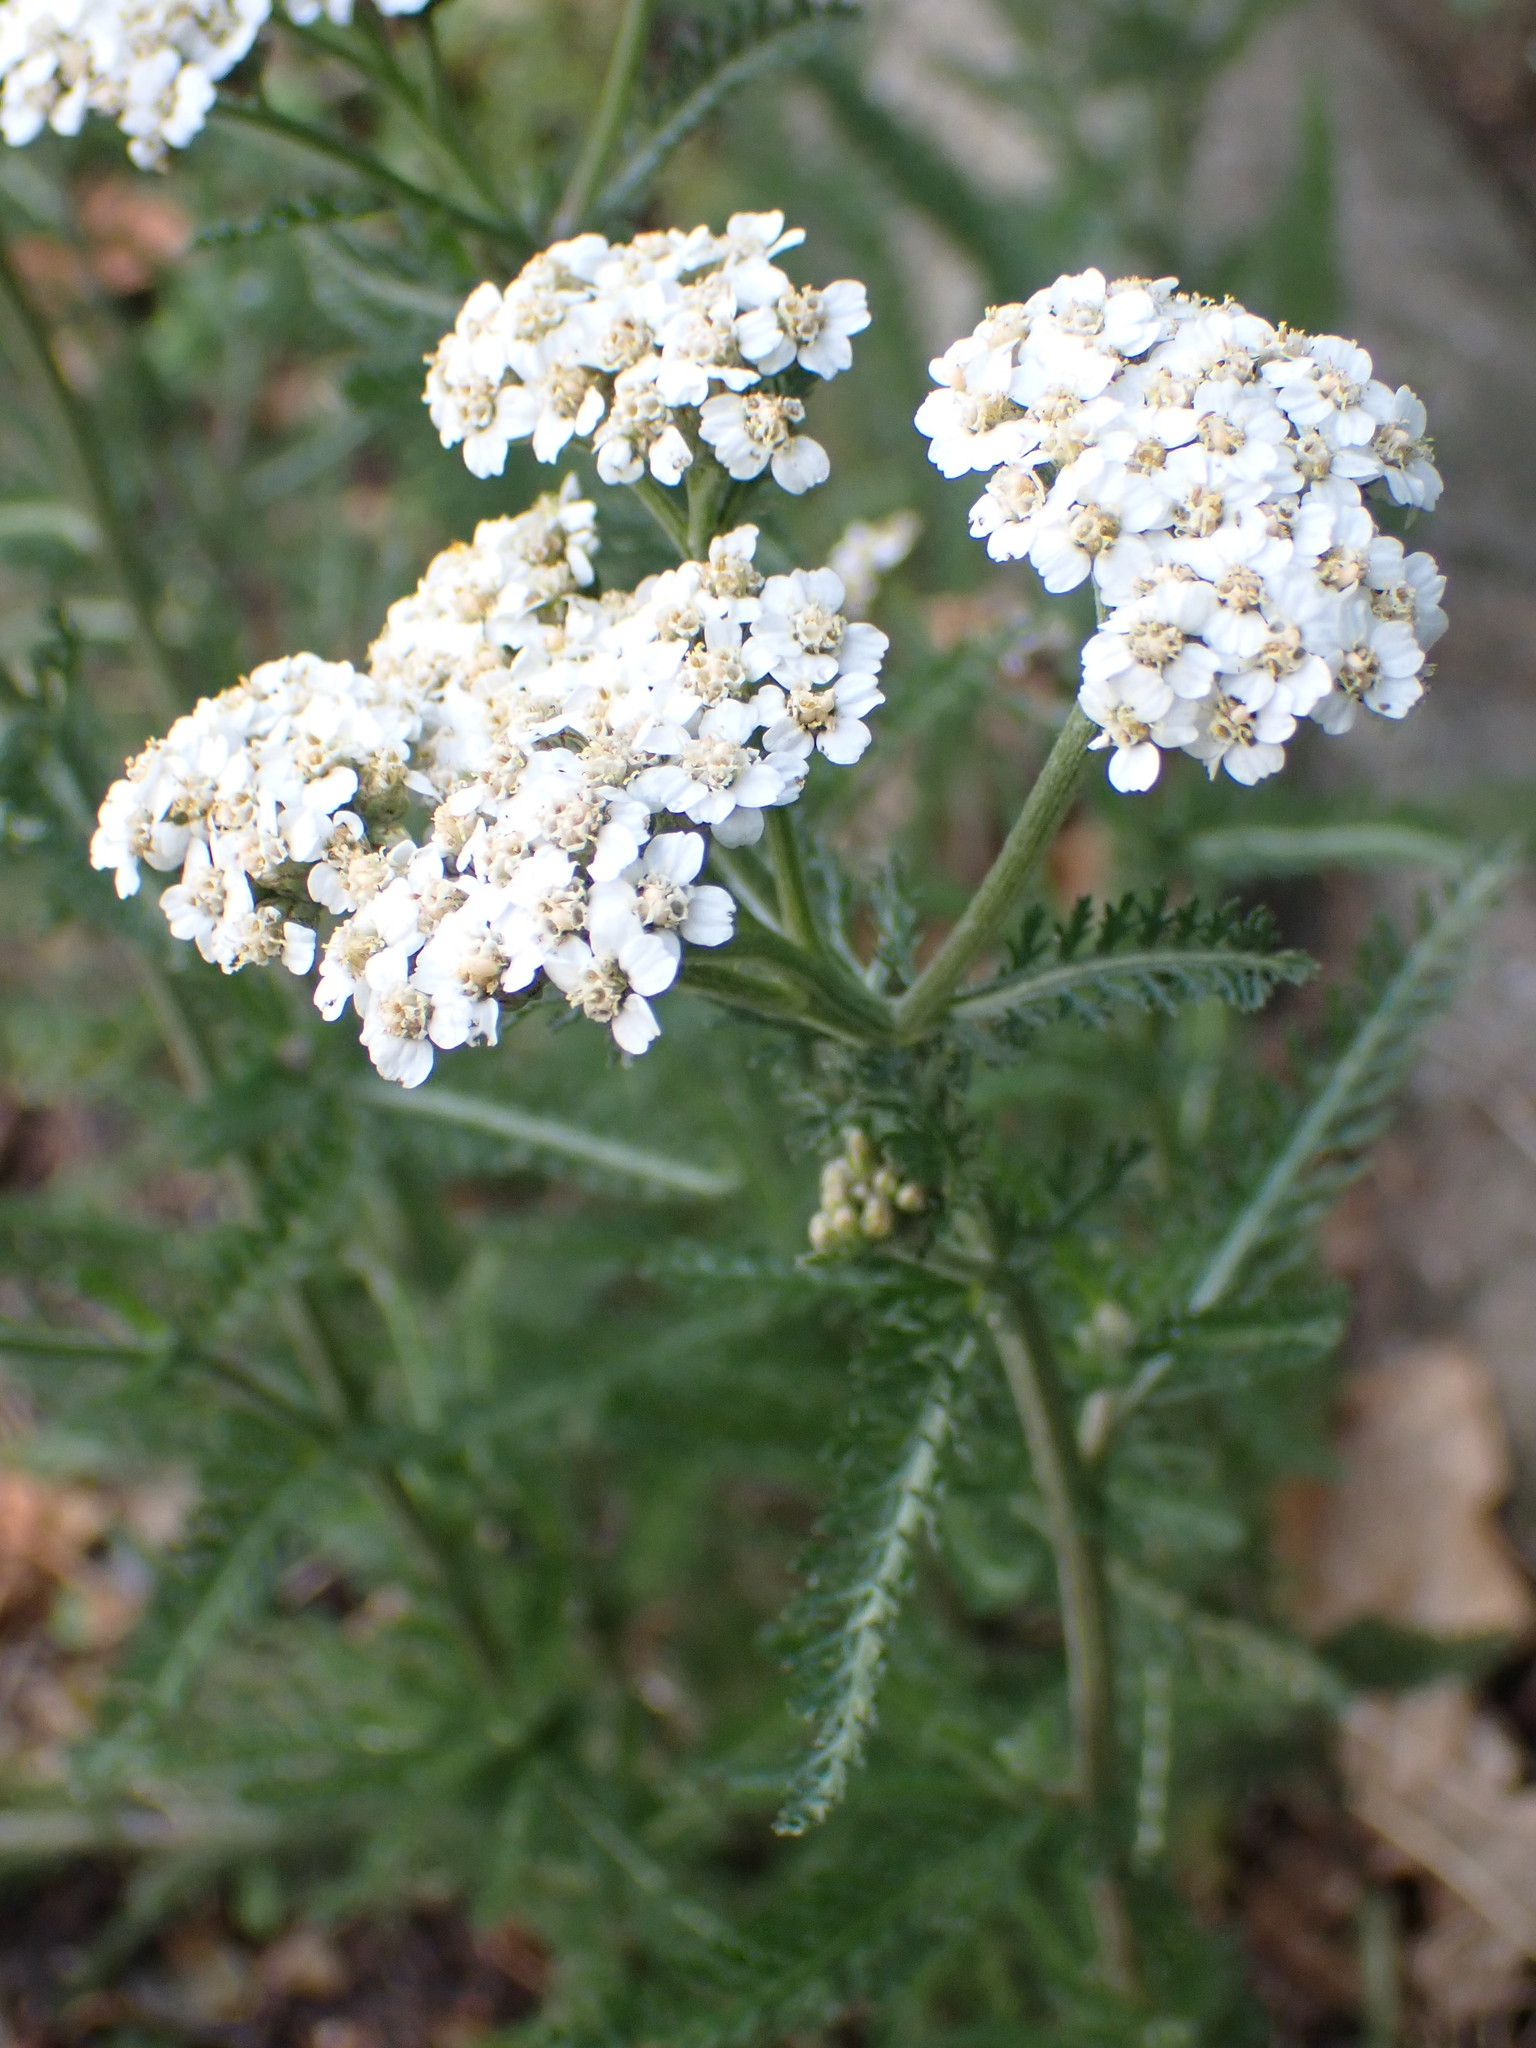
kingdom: Plantae
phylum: Tracheophyta
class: Magnoliopsida
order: Asterales
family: Asteraceae
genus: Achillea
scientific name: Achillea millefolium
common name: Yarrow
